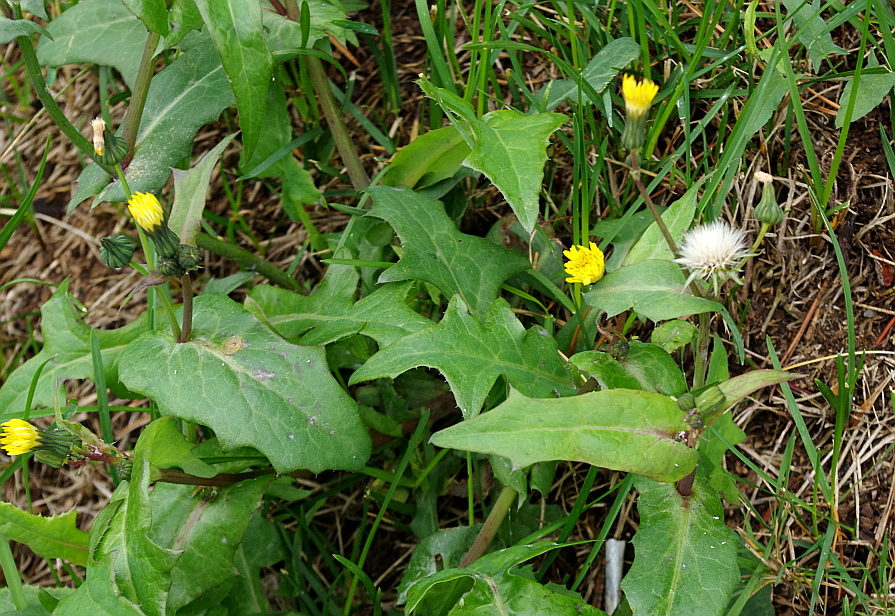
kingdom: Plantae
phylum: Tracheophyta
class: Magnoliopsida
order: Asterales
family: Asteraceae
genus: Sonchus
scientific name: Sonchus oleraceus
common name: Common sowthistle
